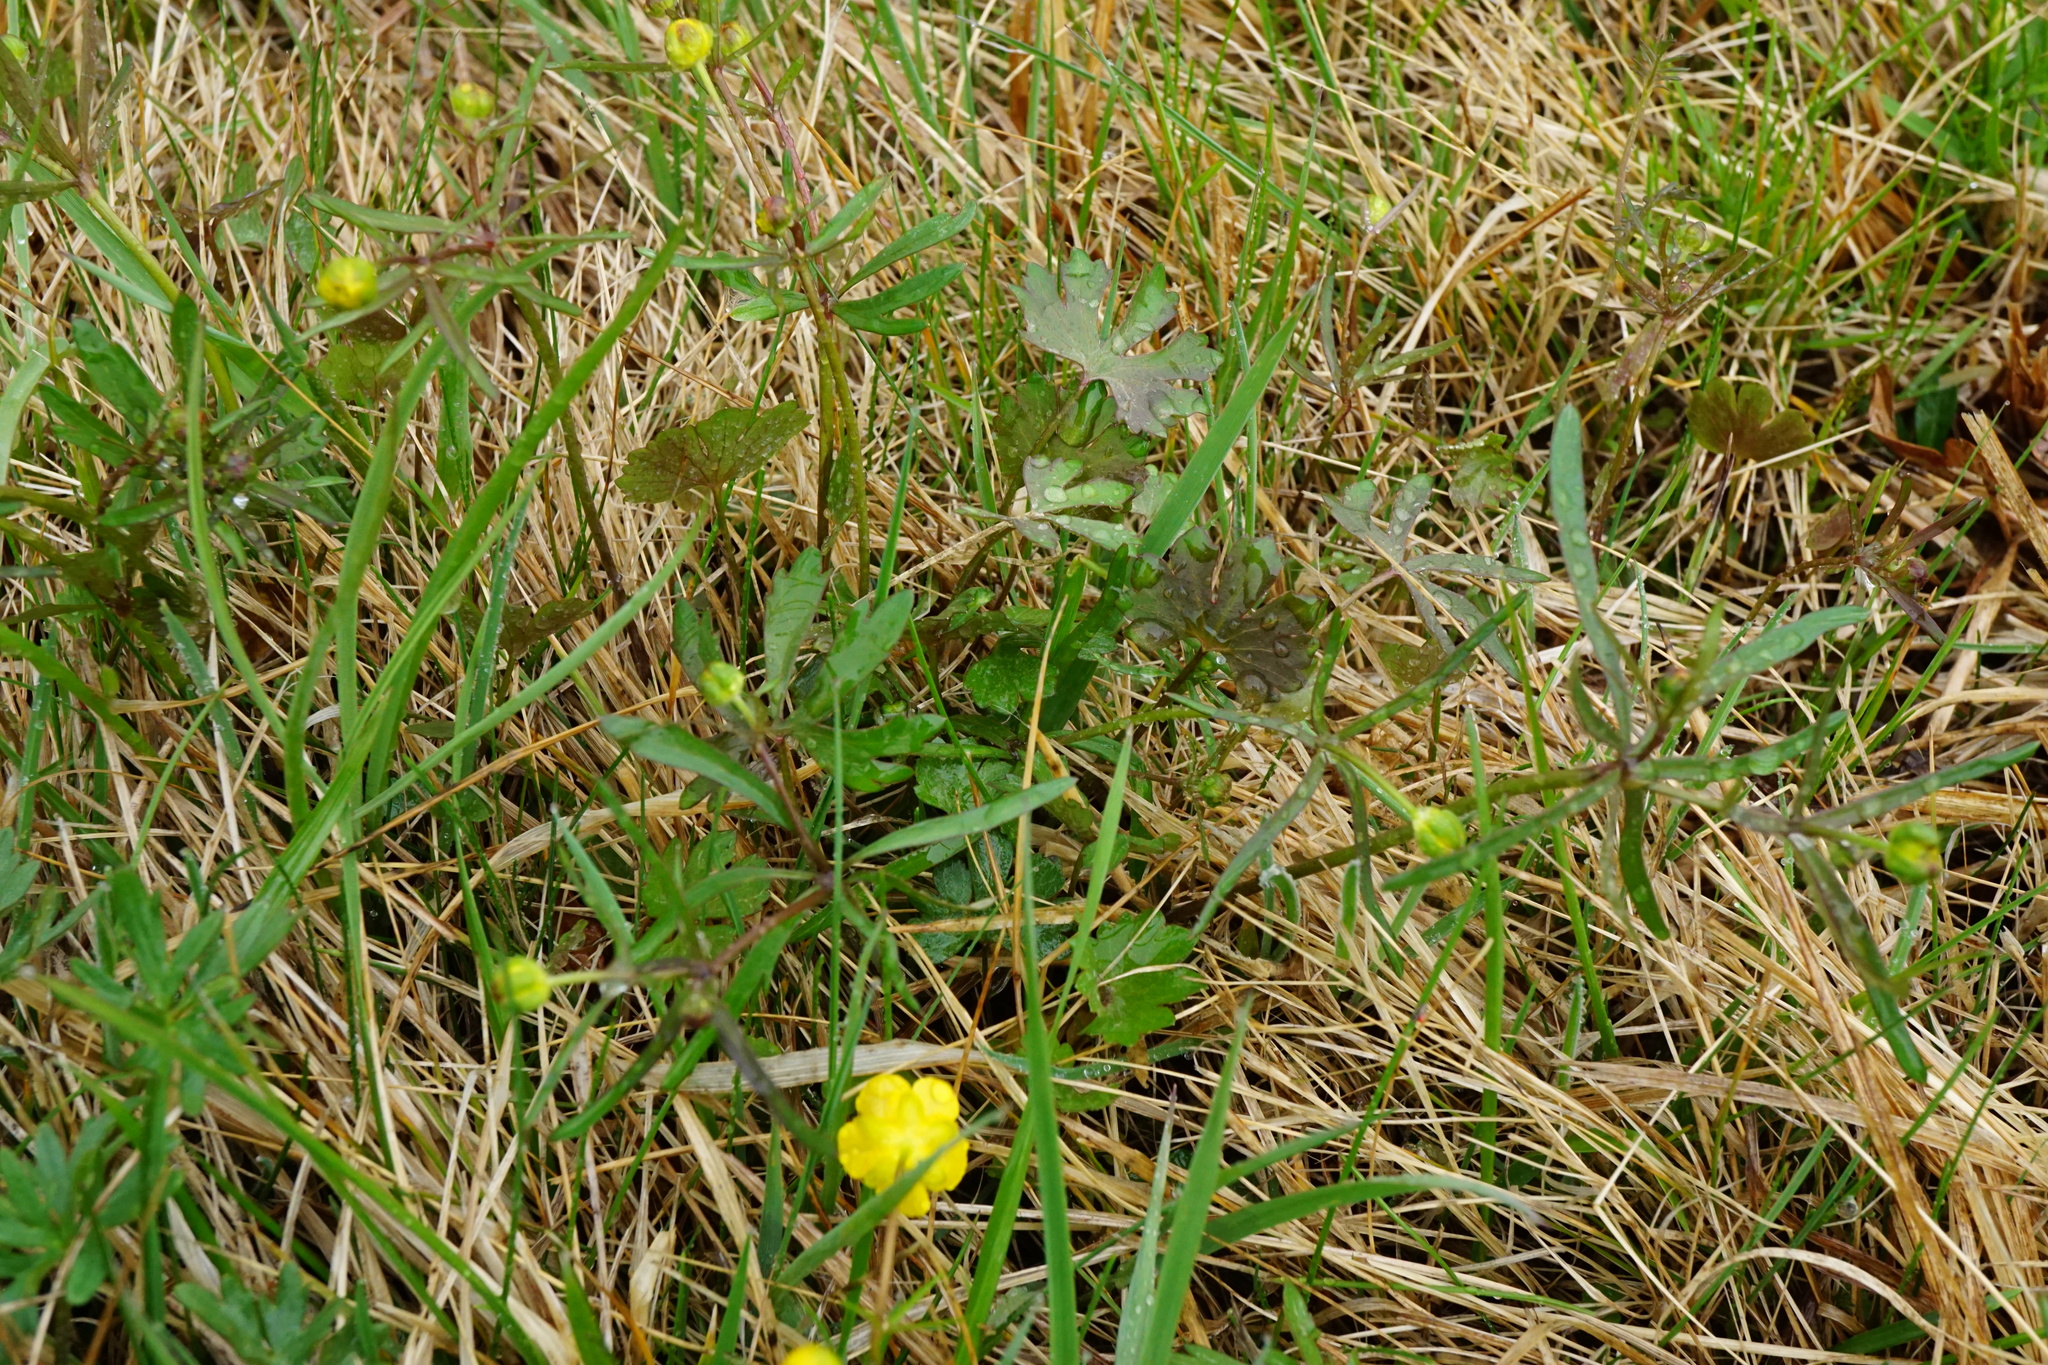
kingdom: Plantae
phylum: Tracheophyta
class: Magnoliopsida
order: Ranunculales
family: Ranunculaceae
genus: Ranunculus
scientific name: Ranunculus auricomus
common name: Goldilocks buttercup
